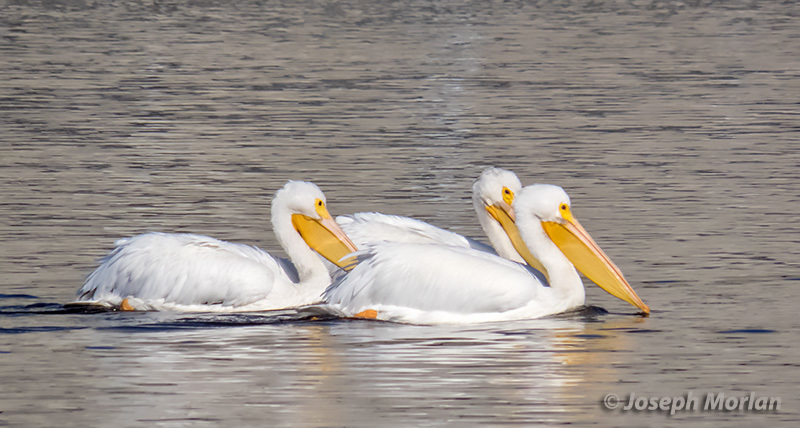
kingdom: Animalia
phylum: Chordata
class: Aves
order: Pelecaniformes
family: Pelecanidae
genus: Pelecanus
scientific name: Pelecanus erythrorhynchos
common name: American white pelican
